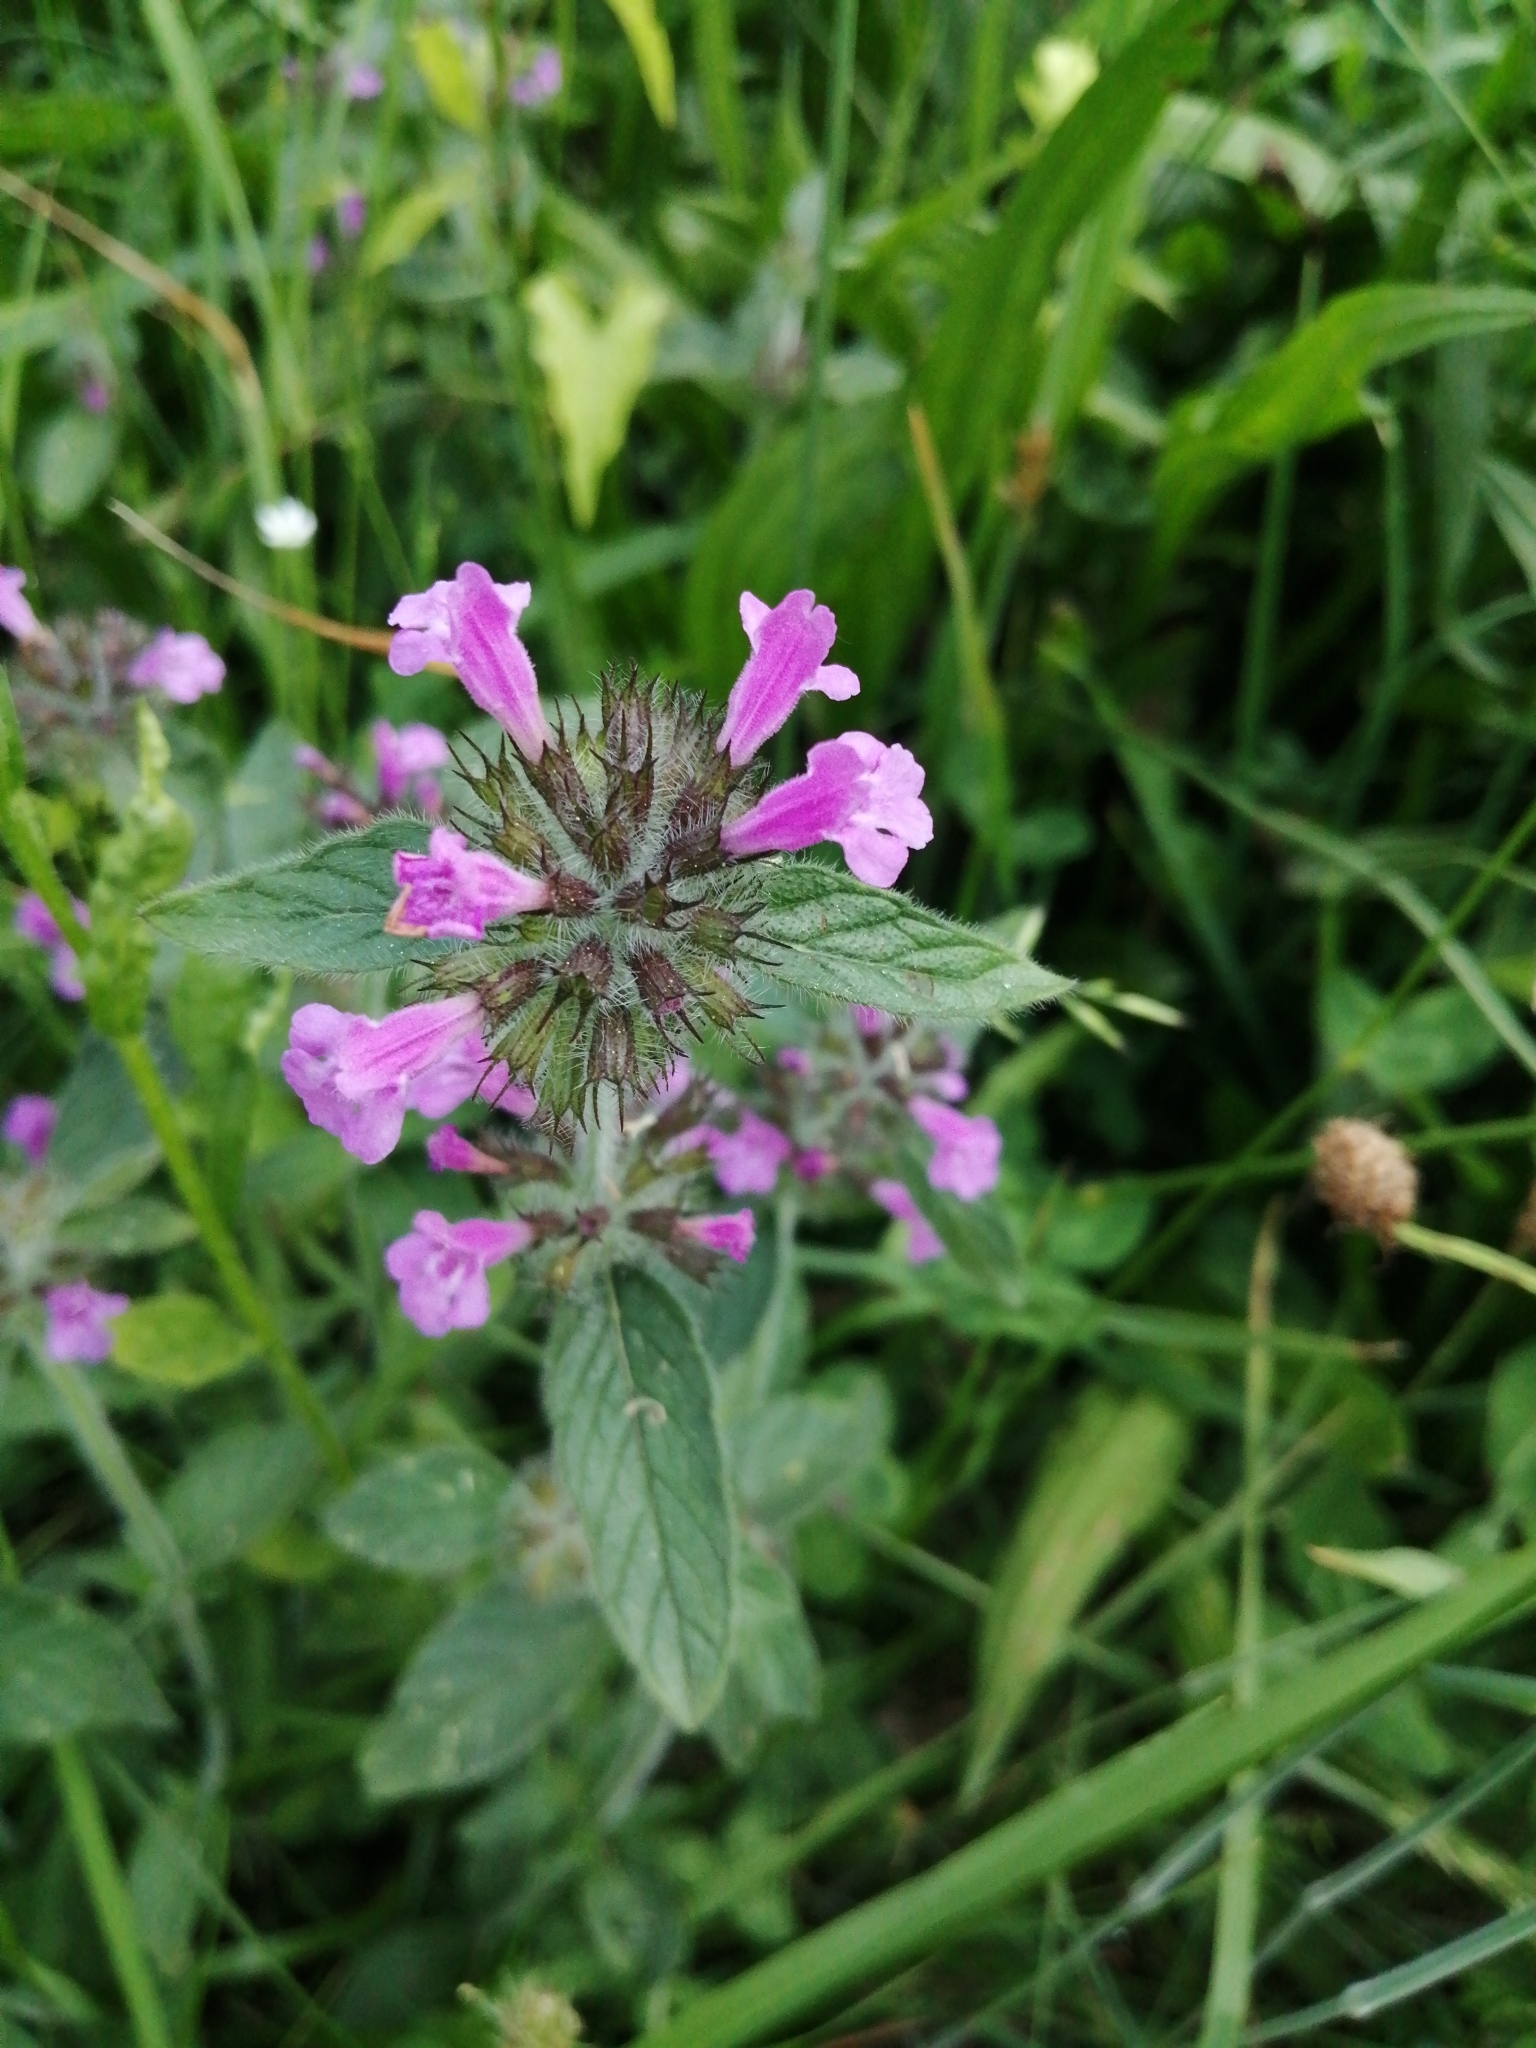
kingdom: Plantae
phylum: Tracheophyta
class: Magnoliopsida
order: Lamiales
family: Lamiaceae
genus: Clinopodium
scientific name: Clinopodium vulgare
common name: Wild basil
